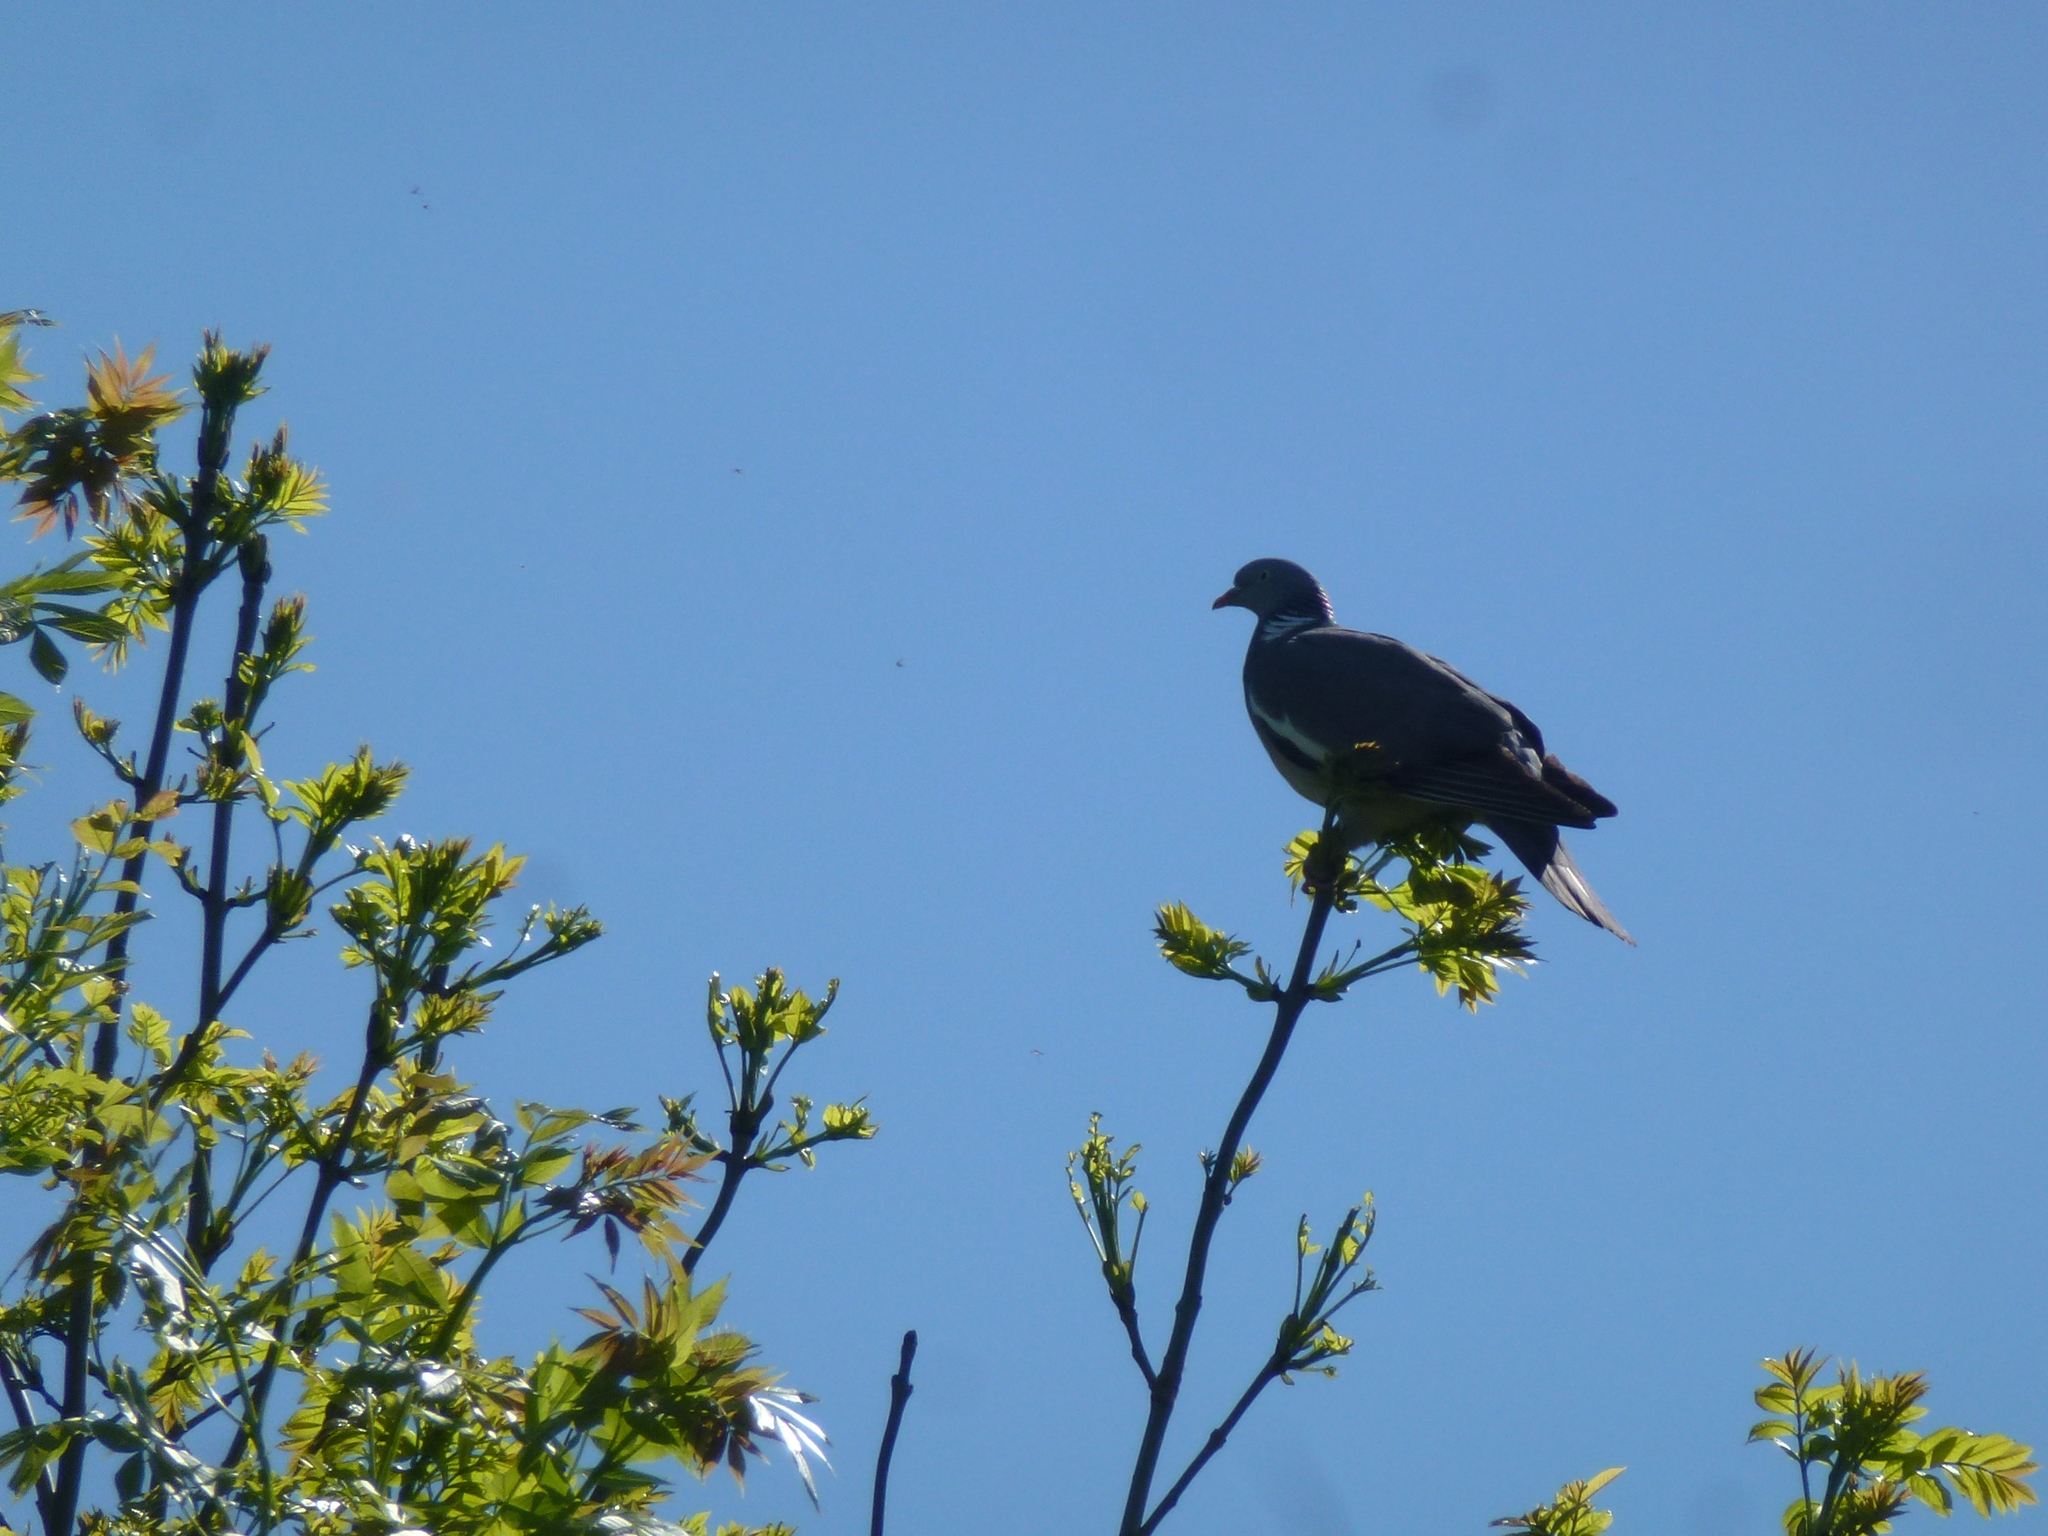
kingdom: Animalia
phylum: Chordata
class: Aves
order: Columbiformes
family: Columbidae
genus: Columba
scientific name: Columba palumbus
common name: Common wood pigeon
